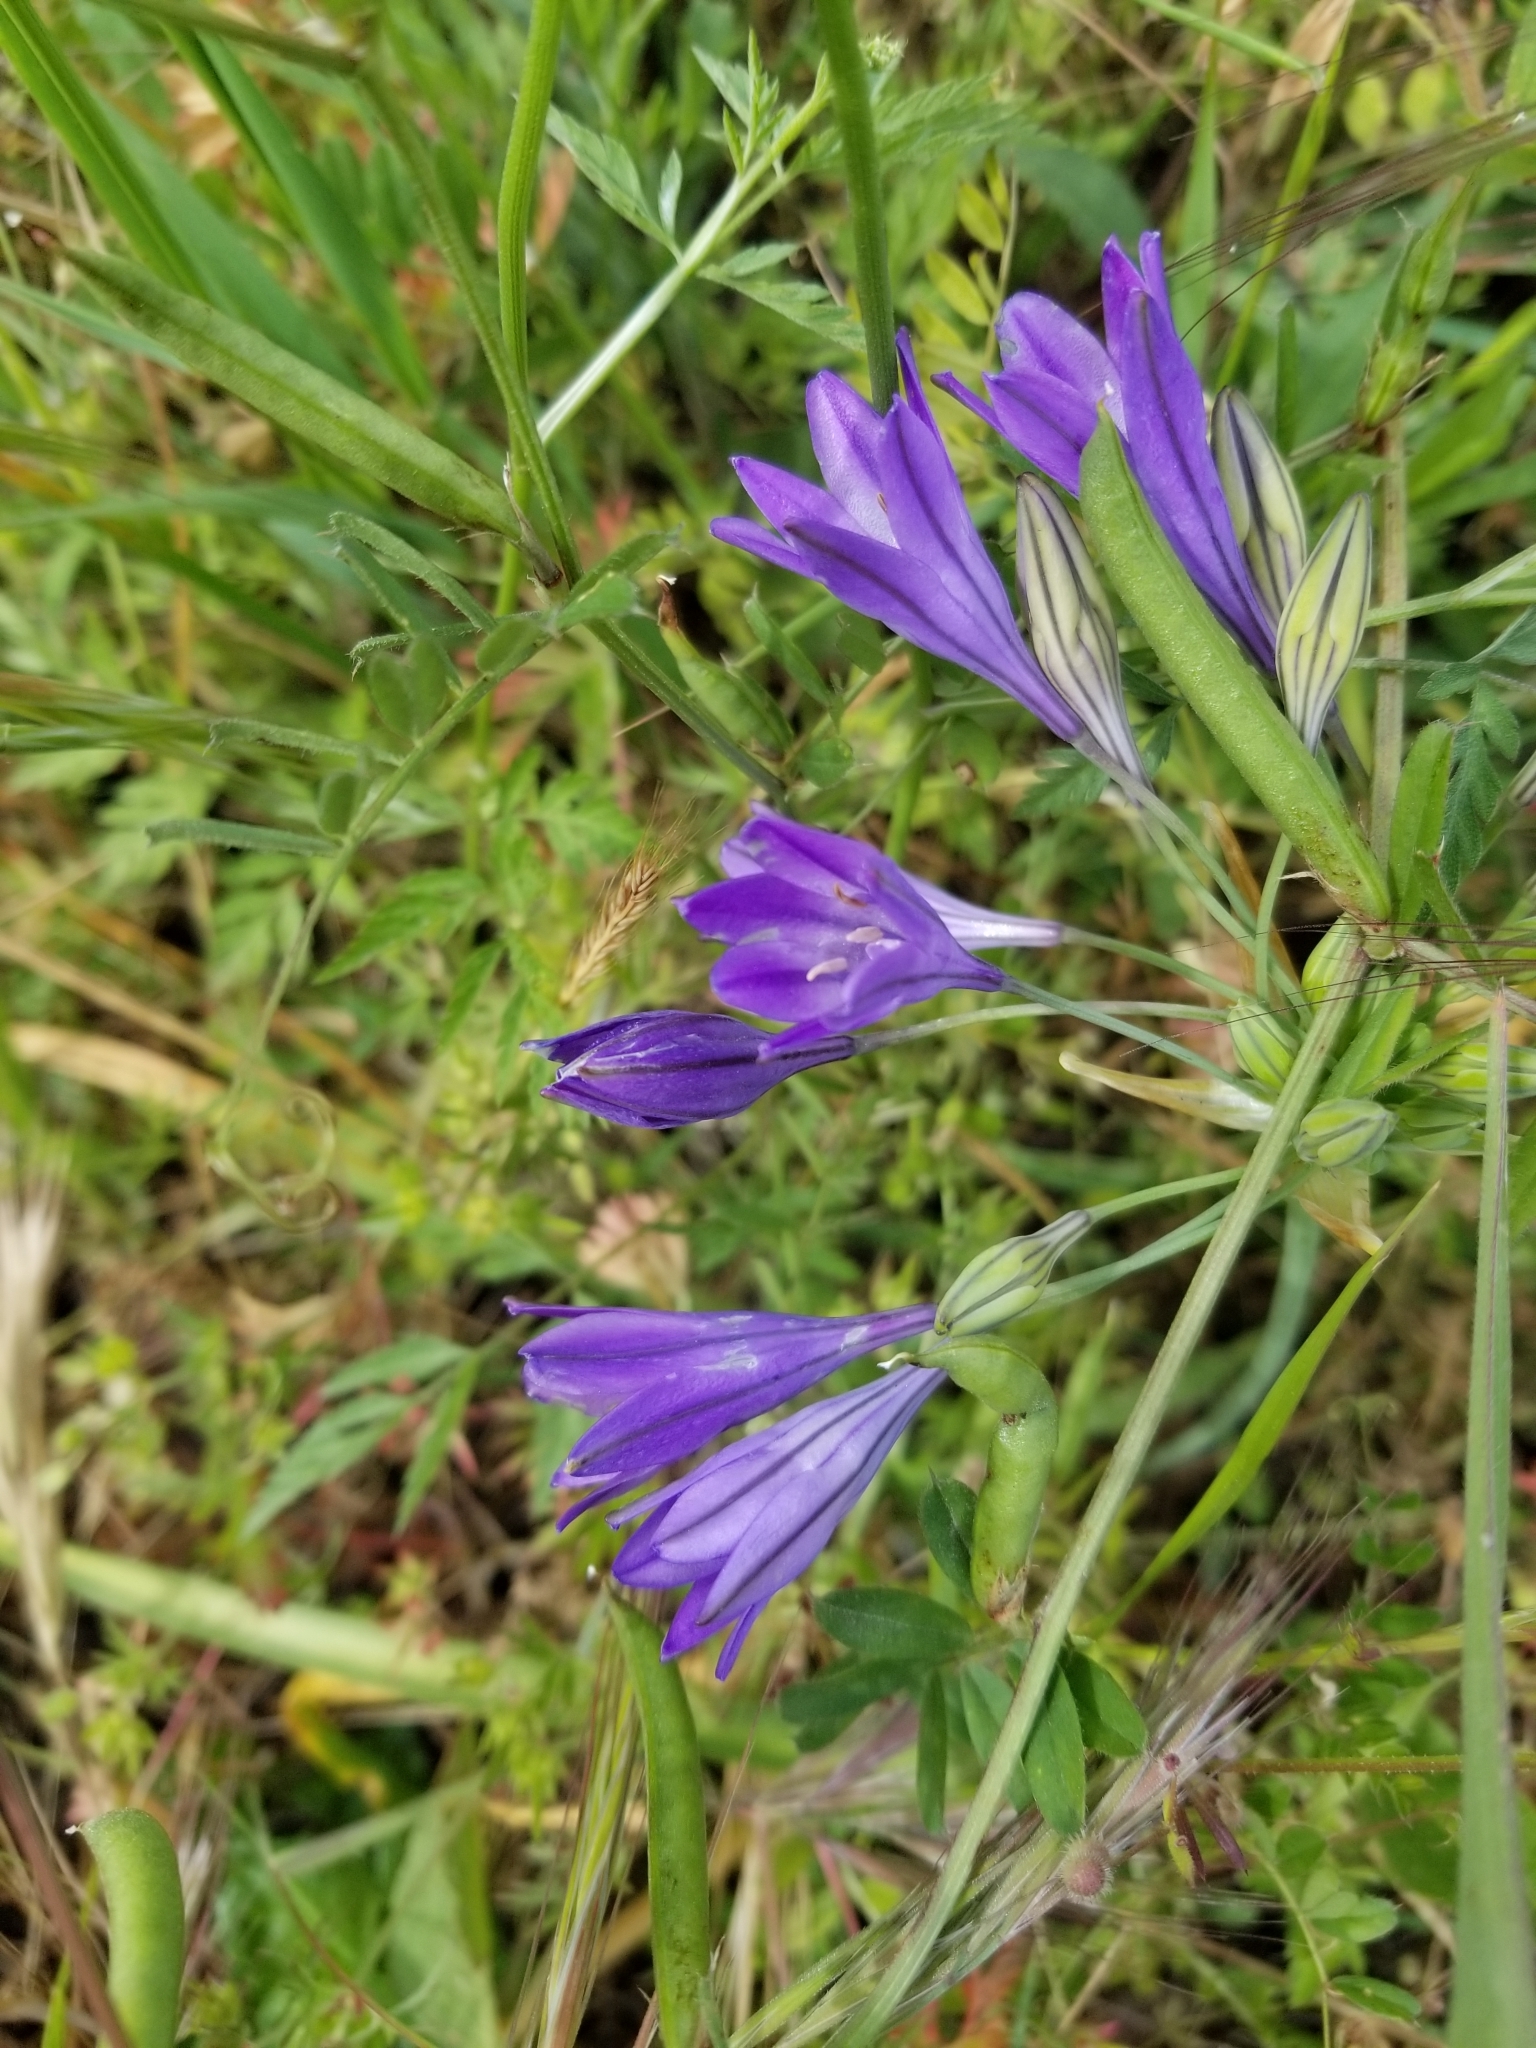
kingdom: Plantae
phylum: Tracheophyta
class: Liliopsida
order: Asparagales
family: Asparagaceae
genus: Triteleia
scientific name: Triteleia laxa
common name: Triplet-lily
